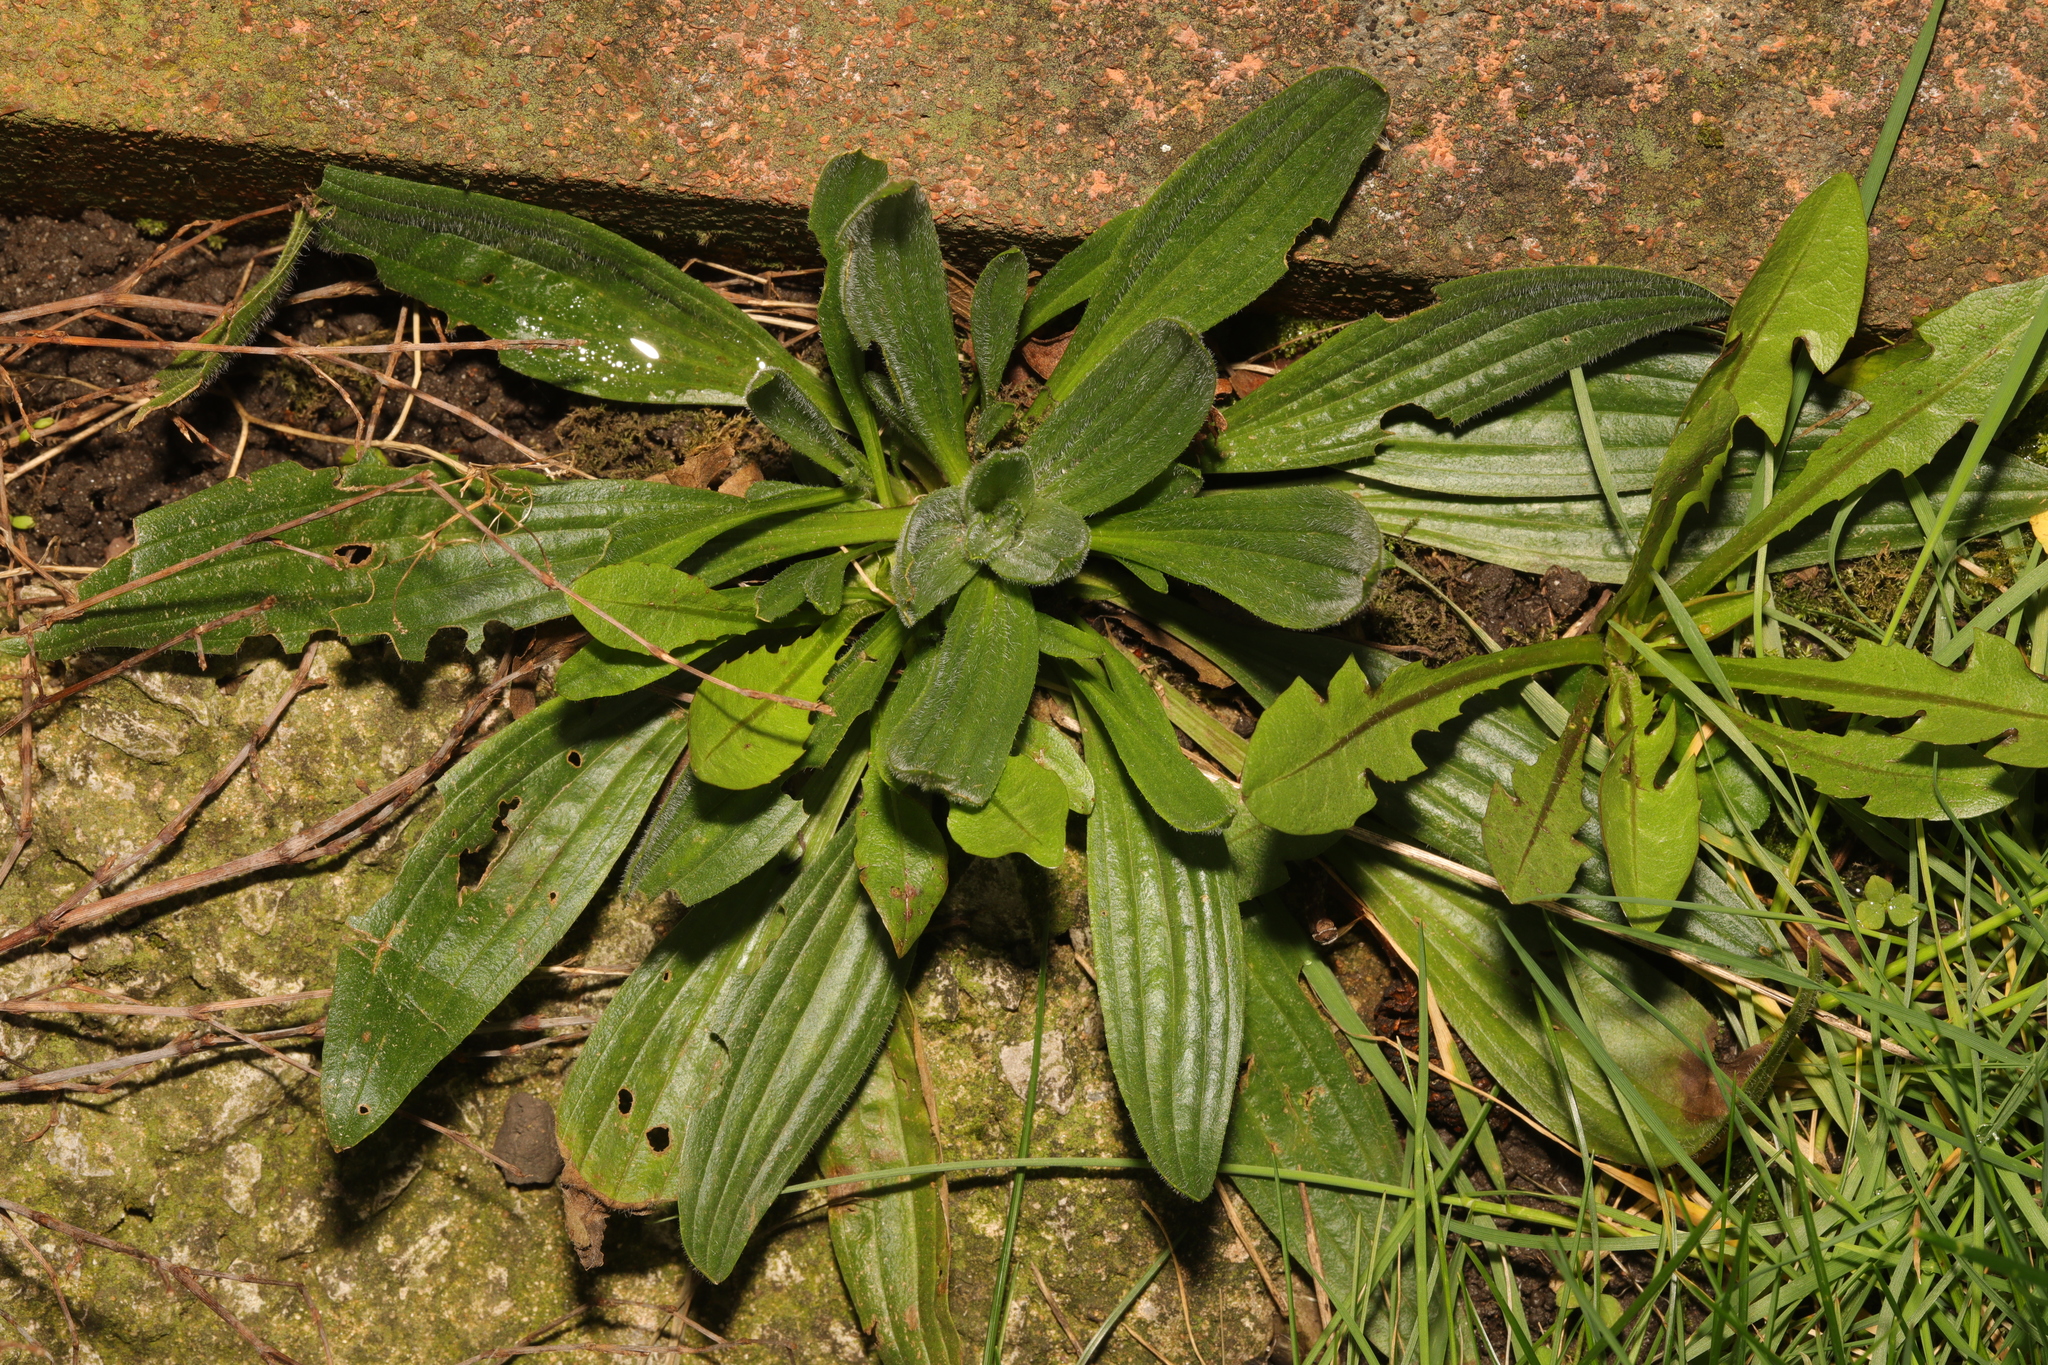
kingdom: Plantae
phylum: Tracheophyta
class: Magnoliopsida
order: Lamiales
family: Plantaginaceae
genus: Plantago
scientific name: Plantago lanceolata
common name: Ribwort plantain
